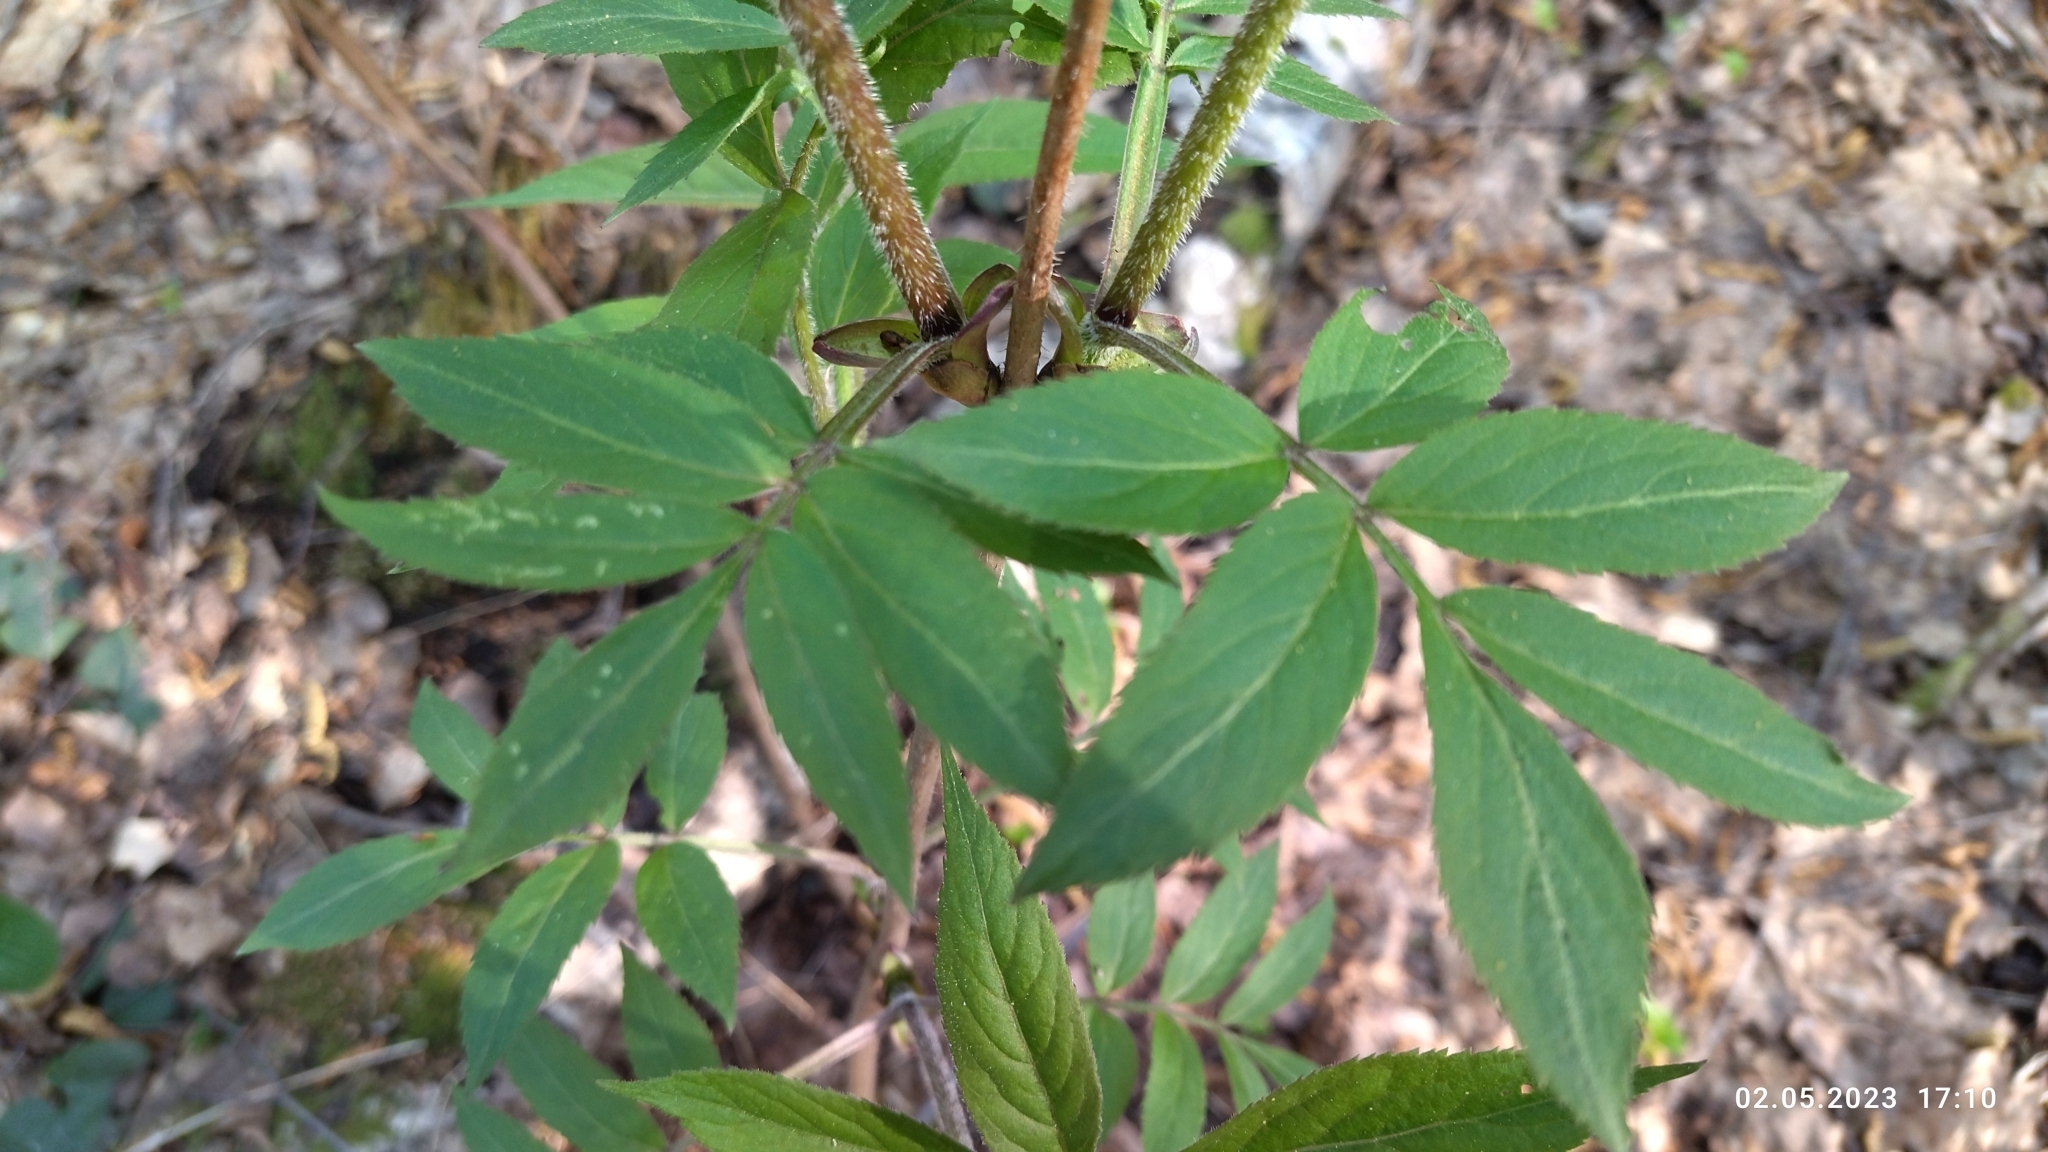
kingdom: Plantae
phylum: Tracheophyta
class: Magnoliopsida
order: Dipsacales
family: Viburnaceae
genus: Sambucus
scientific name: Sambucus racemosa
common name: Red-berried elder
